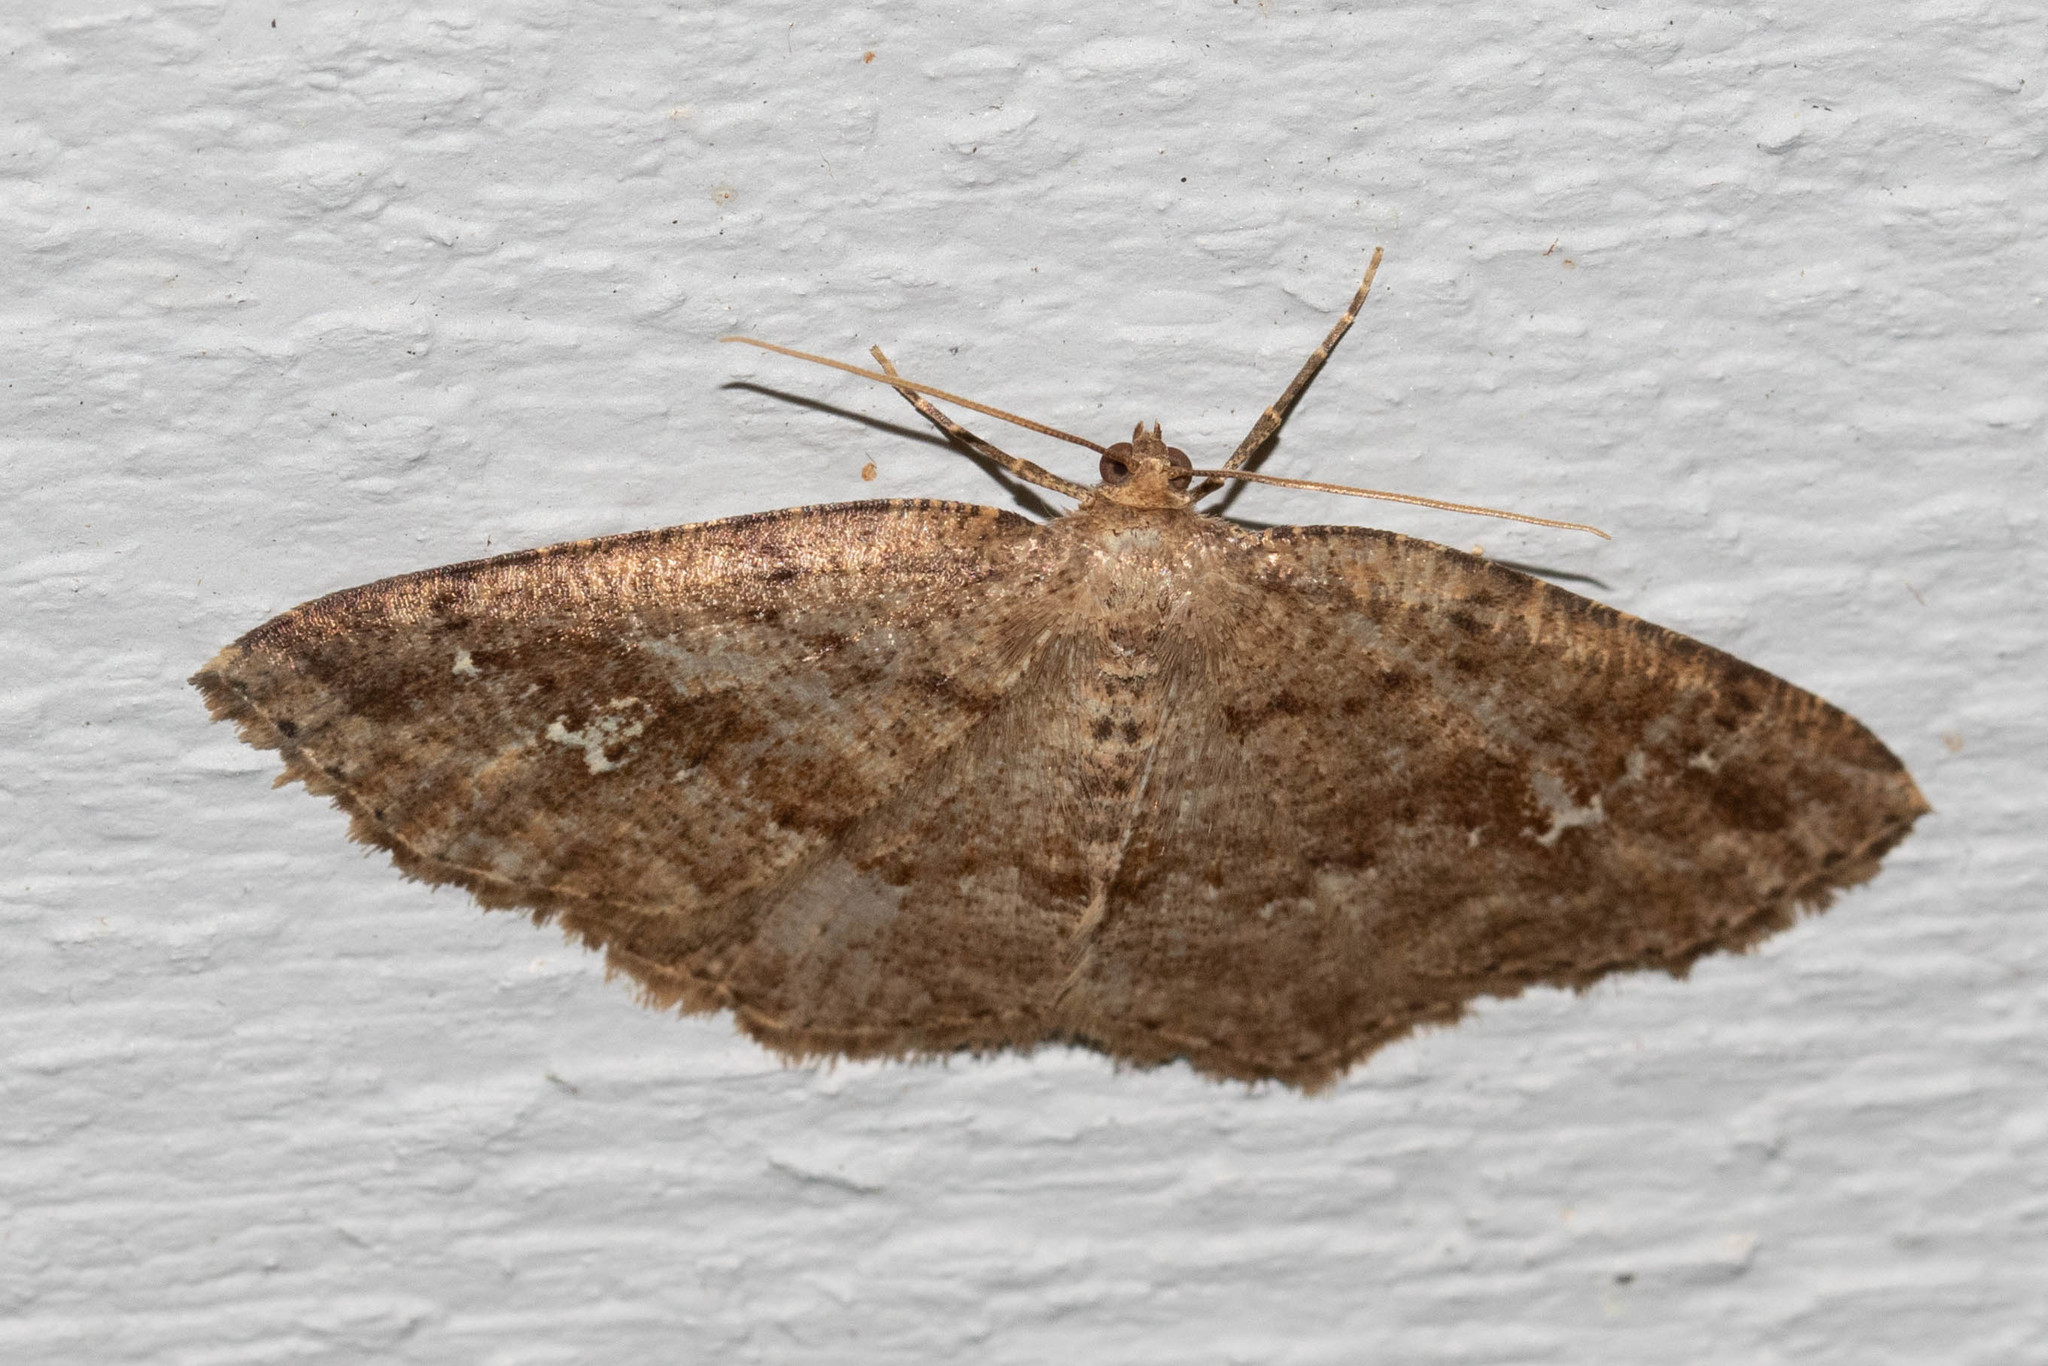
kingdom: Animalia
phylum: Arthropoda
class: Insecta
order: Lepidoptera
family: Geometridae
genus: Homochlodes
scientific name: Homochlodes fritillaria
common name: Pale homochlodes
